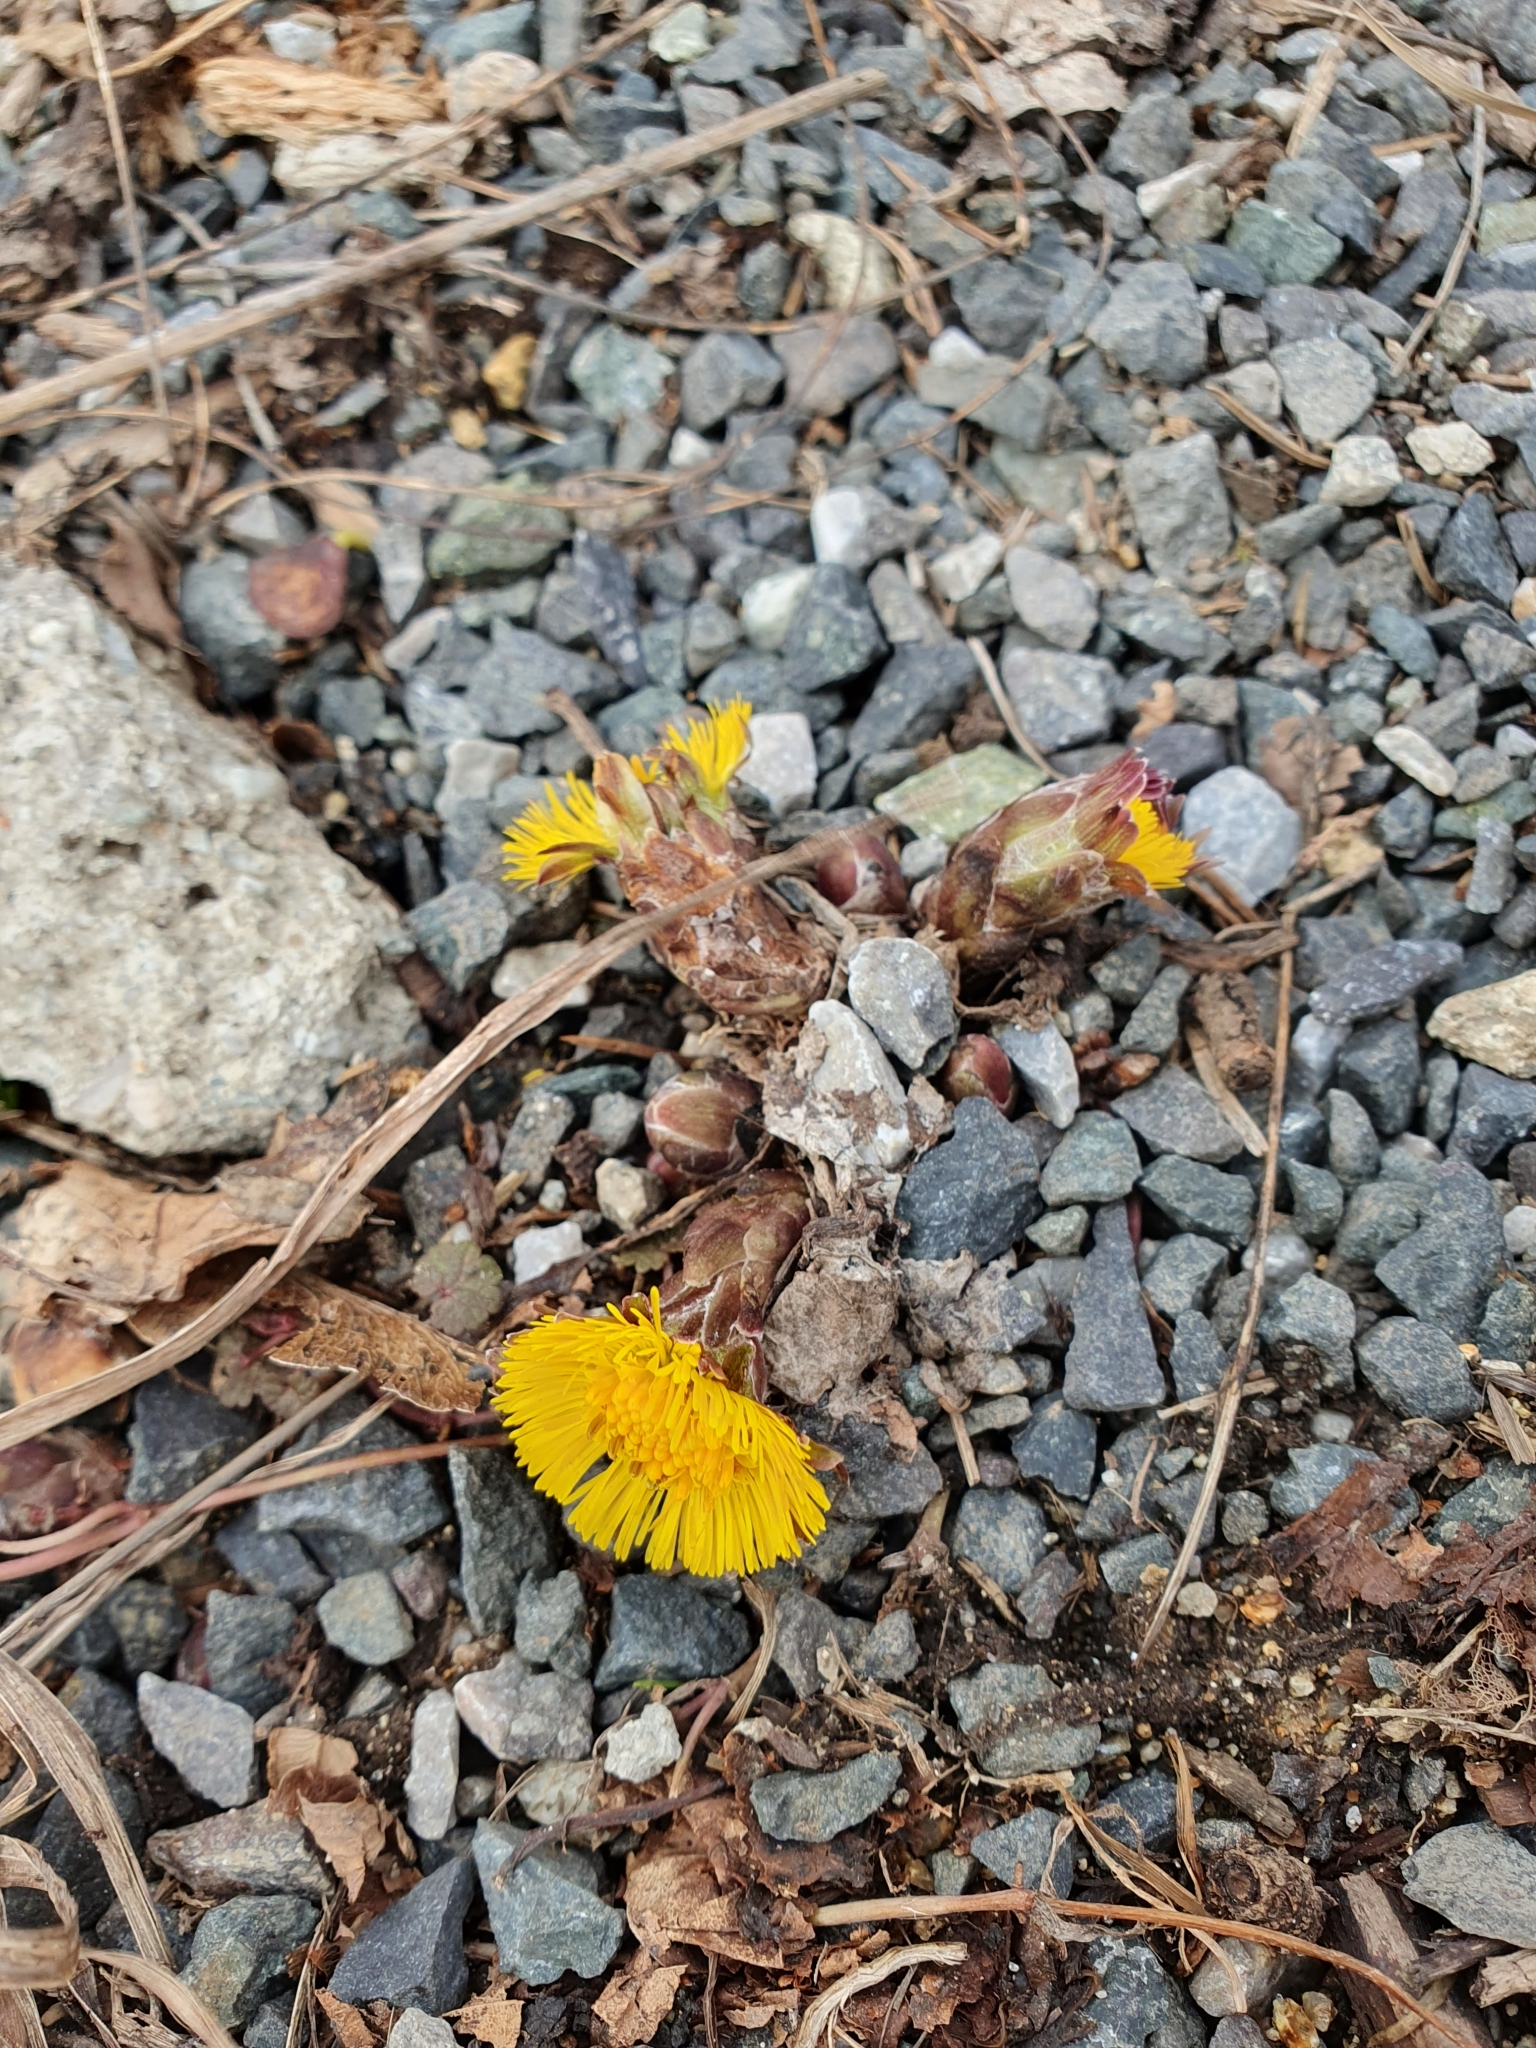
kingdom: Plantae
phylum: Tracheophyta
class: Magnoliopsida
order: Asterales
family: Asteraceae
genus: Tussilago
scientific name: Tussilago farfara
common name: Coltsfoot
